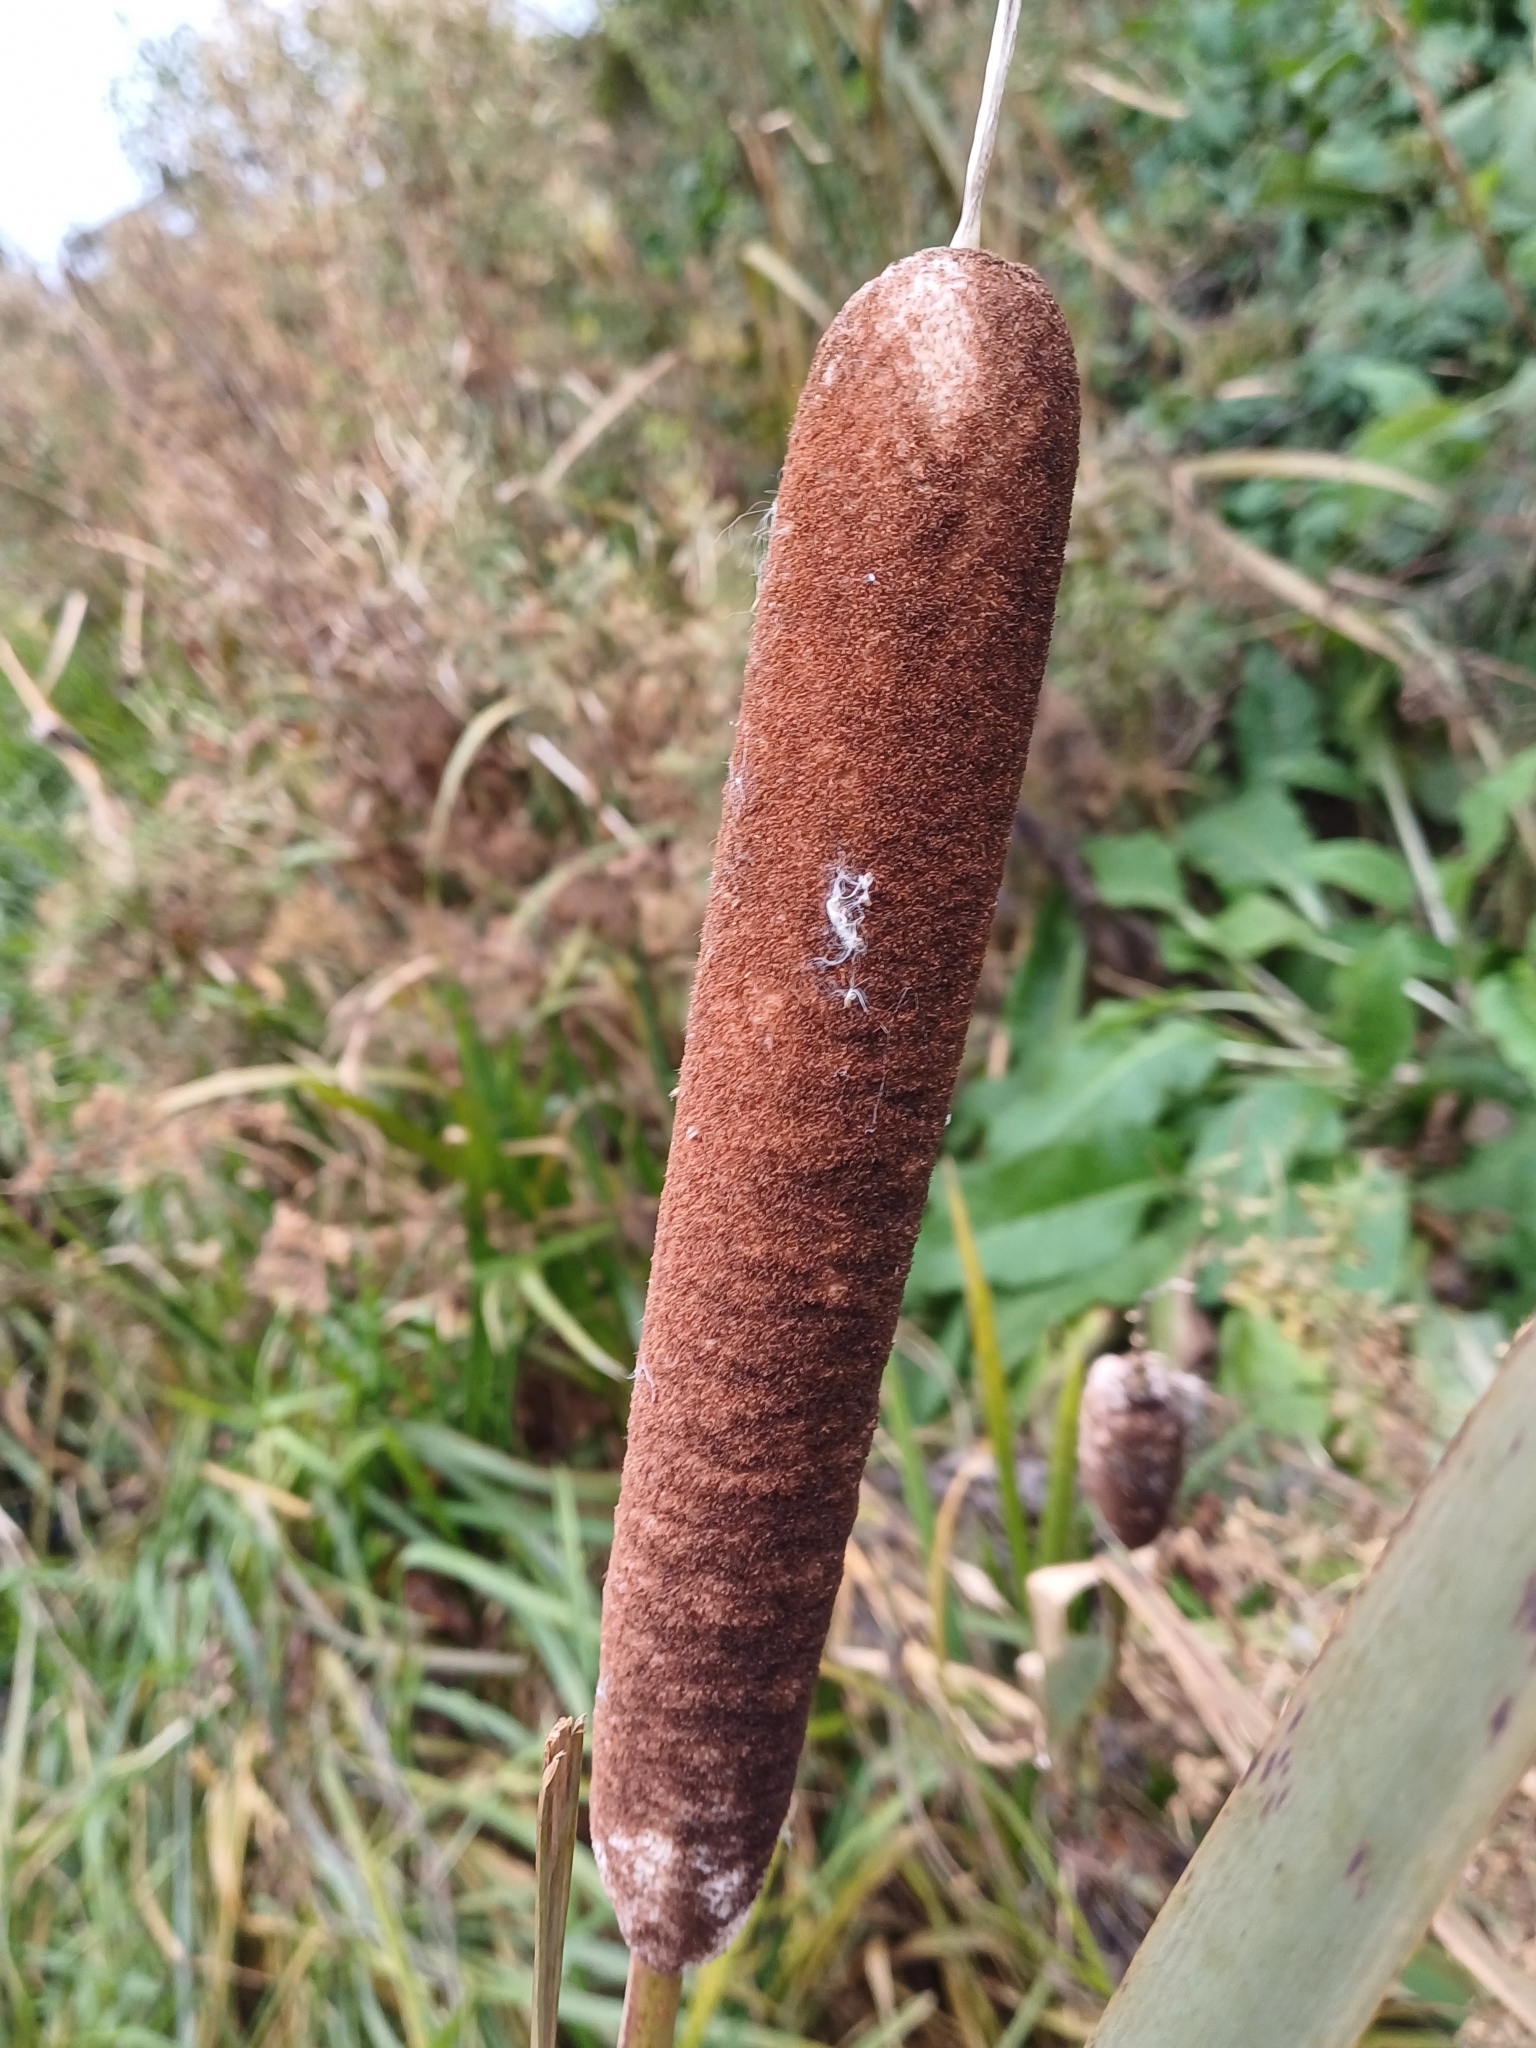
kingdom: Plantae
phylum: Tracheophyta
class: Liliopsida
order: Poales
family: Typhaceae
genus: Typha
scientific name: Typha latifolia
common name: Broadleaf cattail
